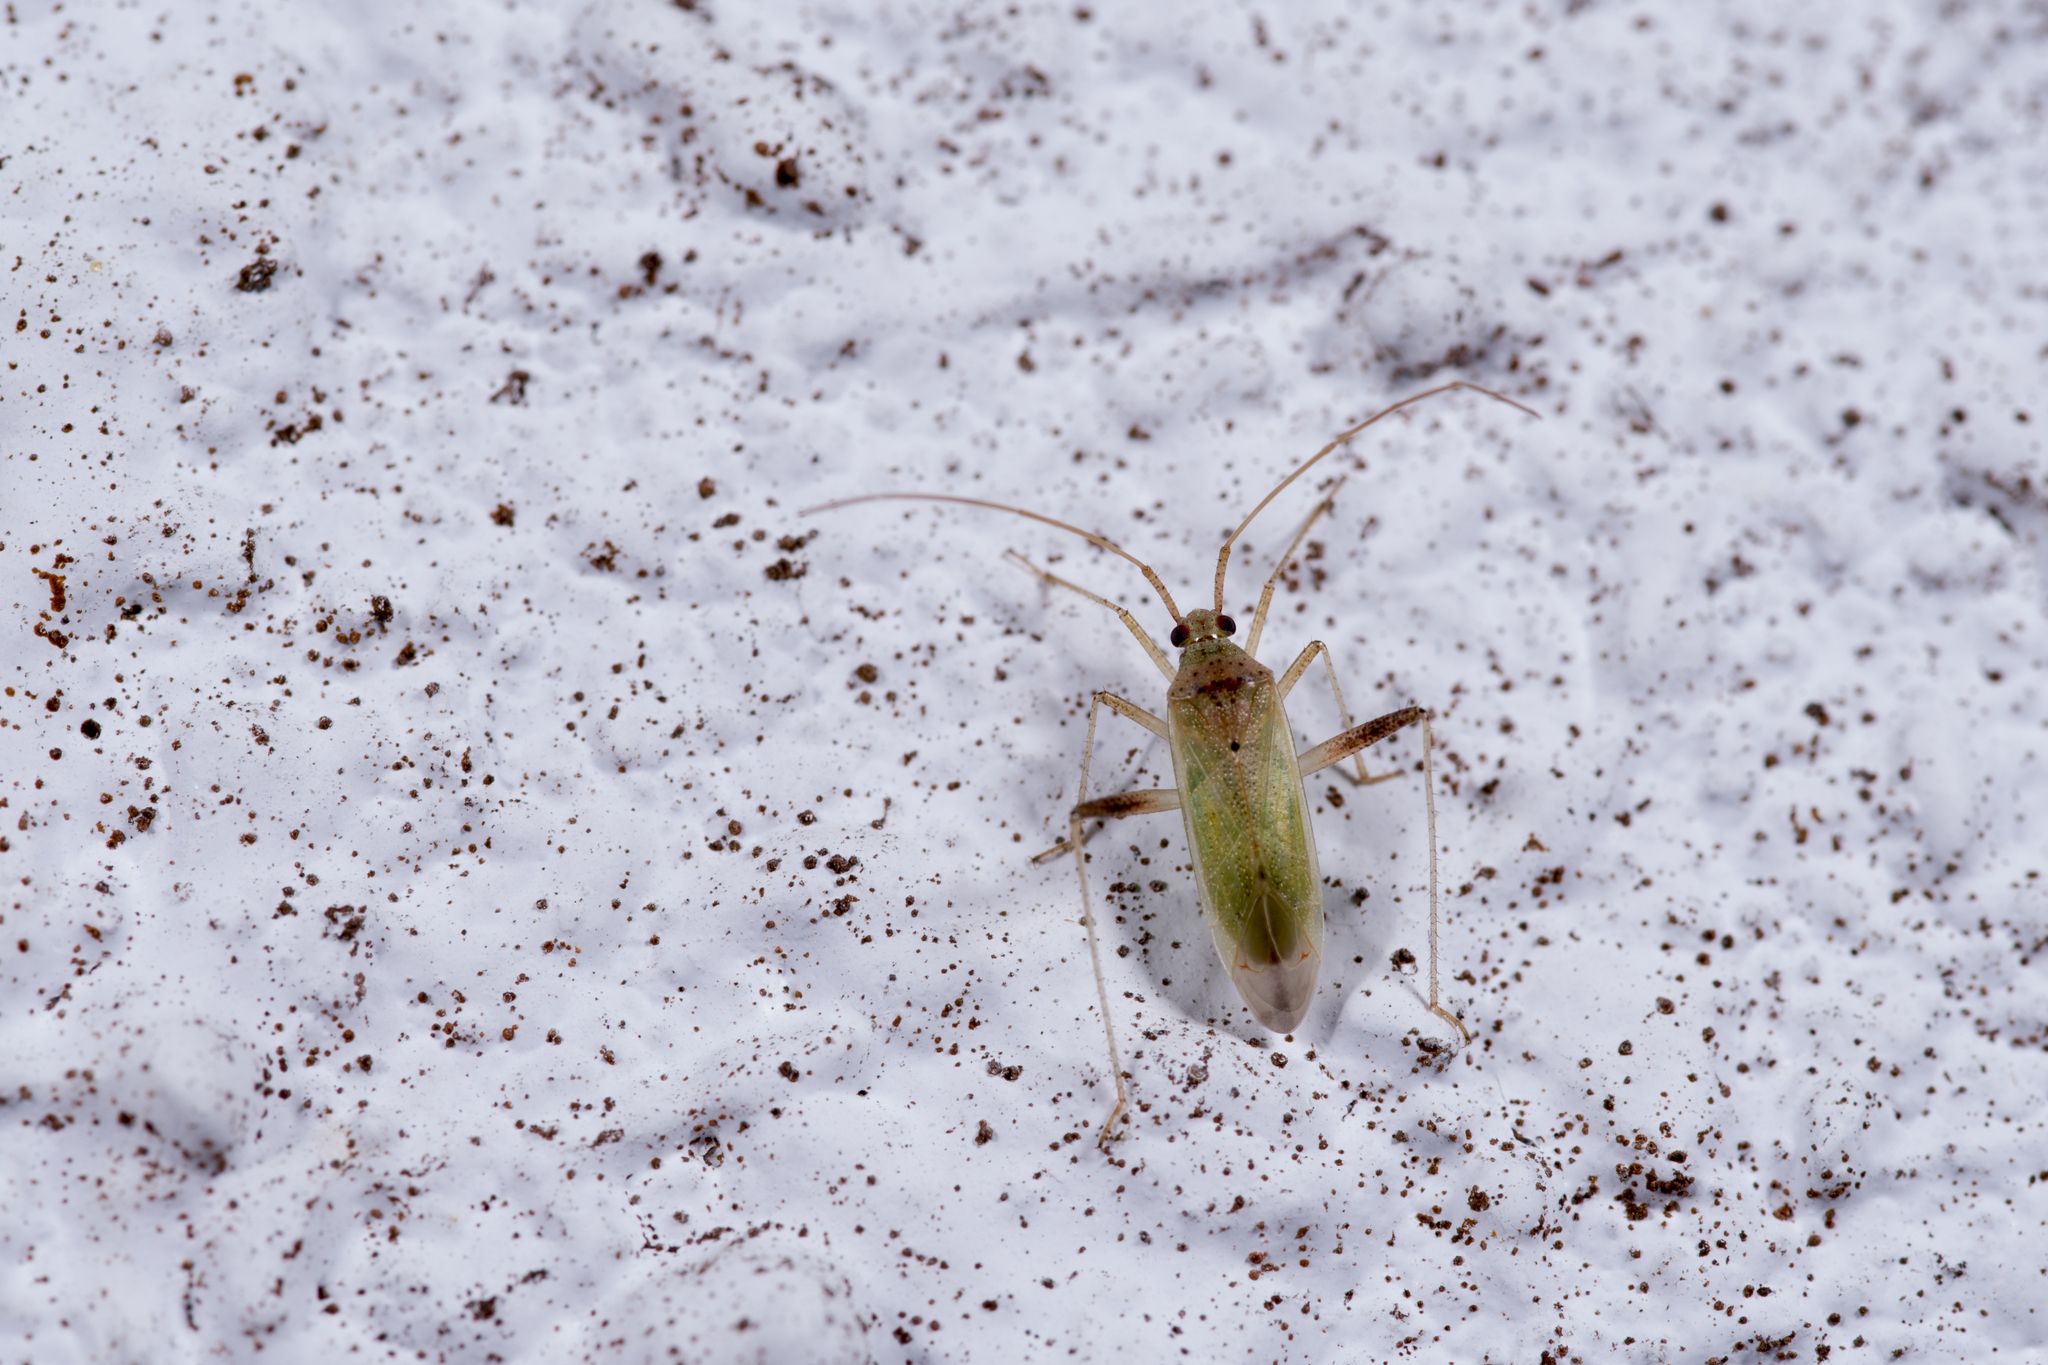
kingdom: Animalia
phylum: Arthropoda
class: Insecta
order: Hemiptera
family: Miridae
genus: Creontiades
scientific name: Creontiades pacificus
